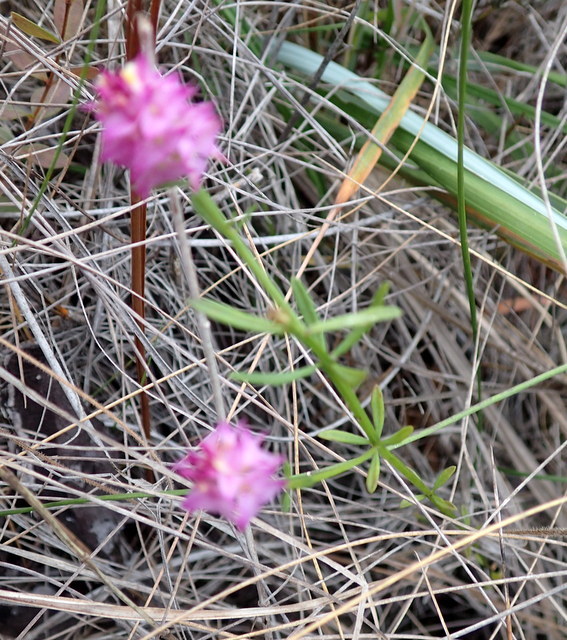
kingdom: Plantae
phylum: Tracheophyta
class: Magnoliopsida
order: Fabales
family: Polygalaceae
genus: Polygala
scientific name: Polygala cruciata
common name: Drumheads
